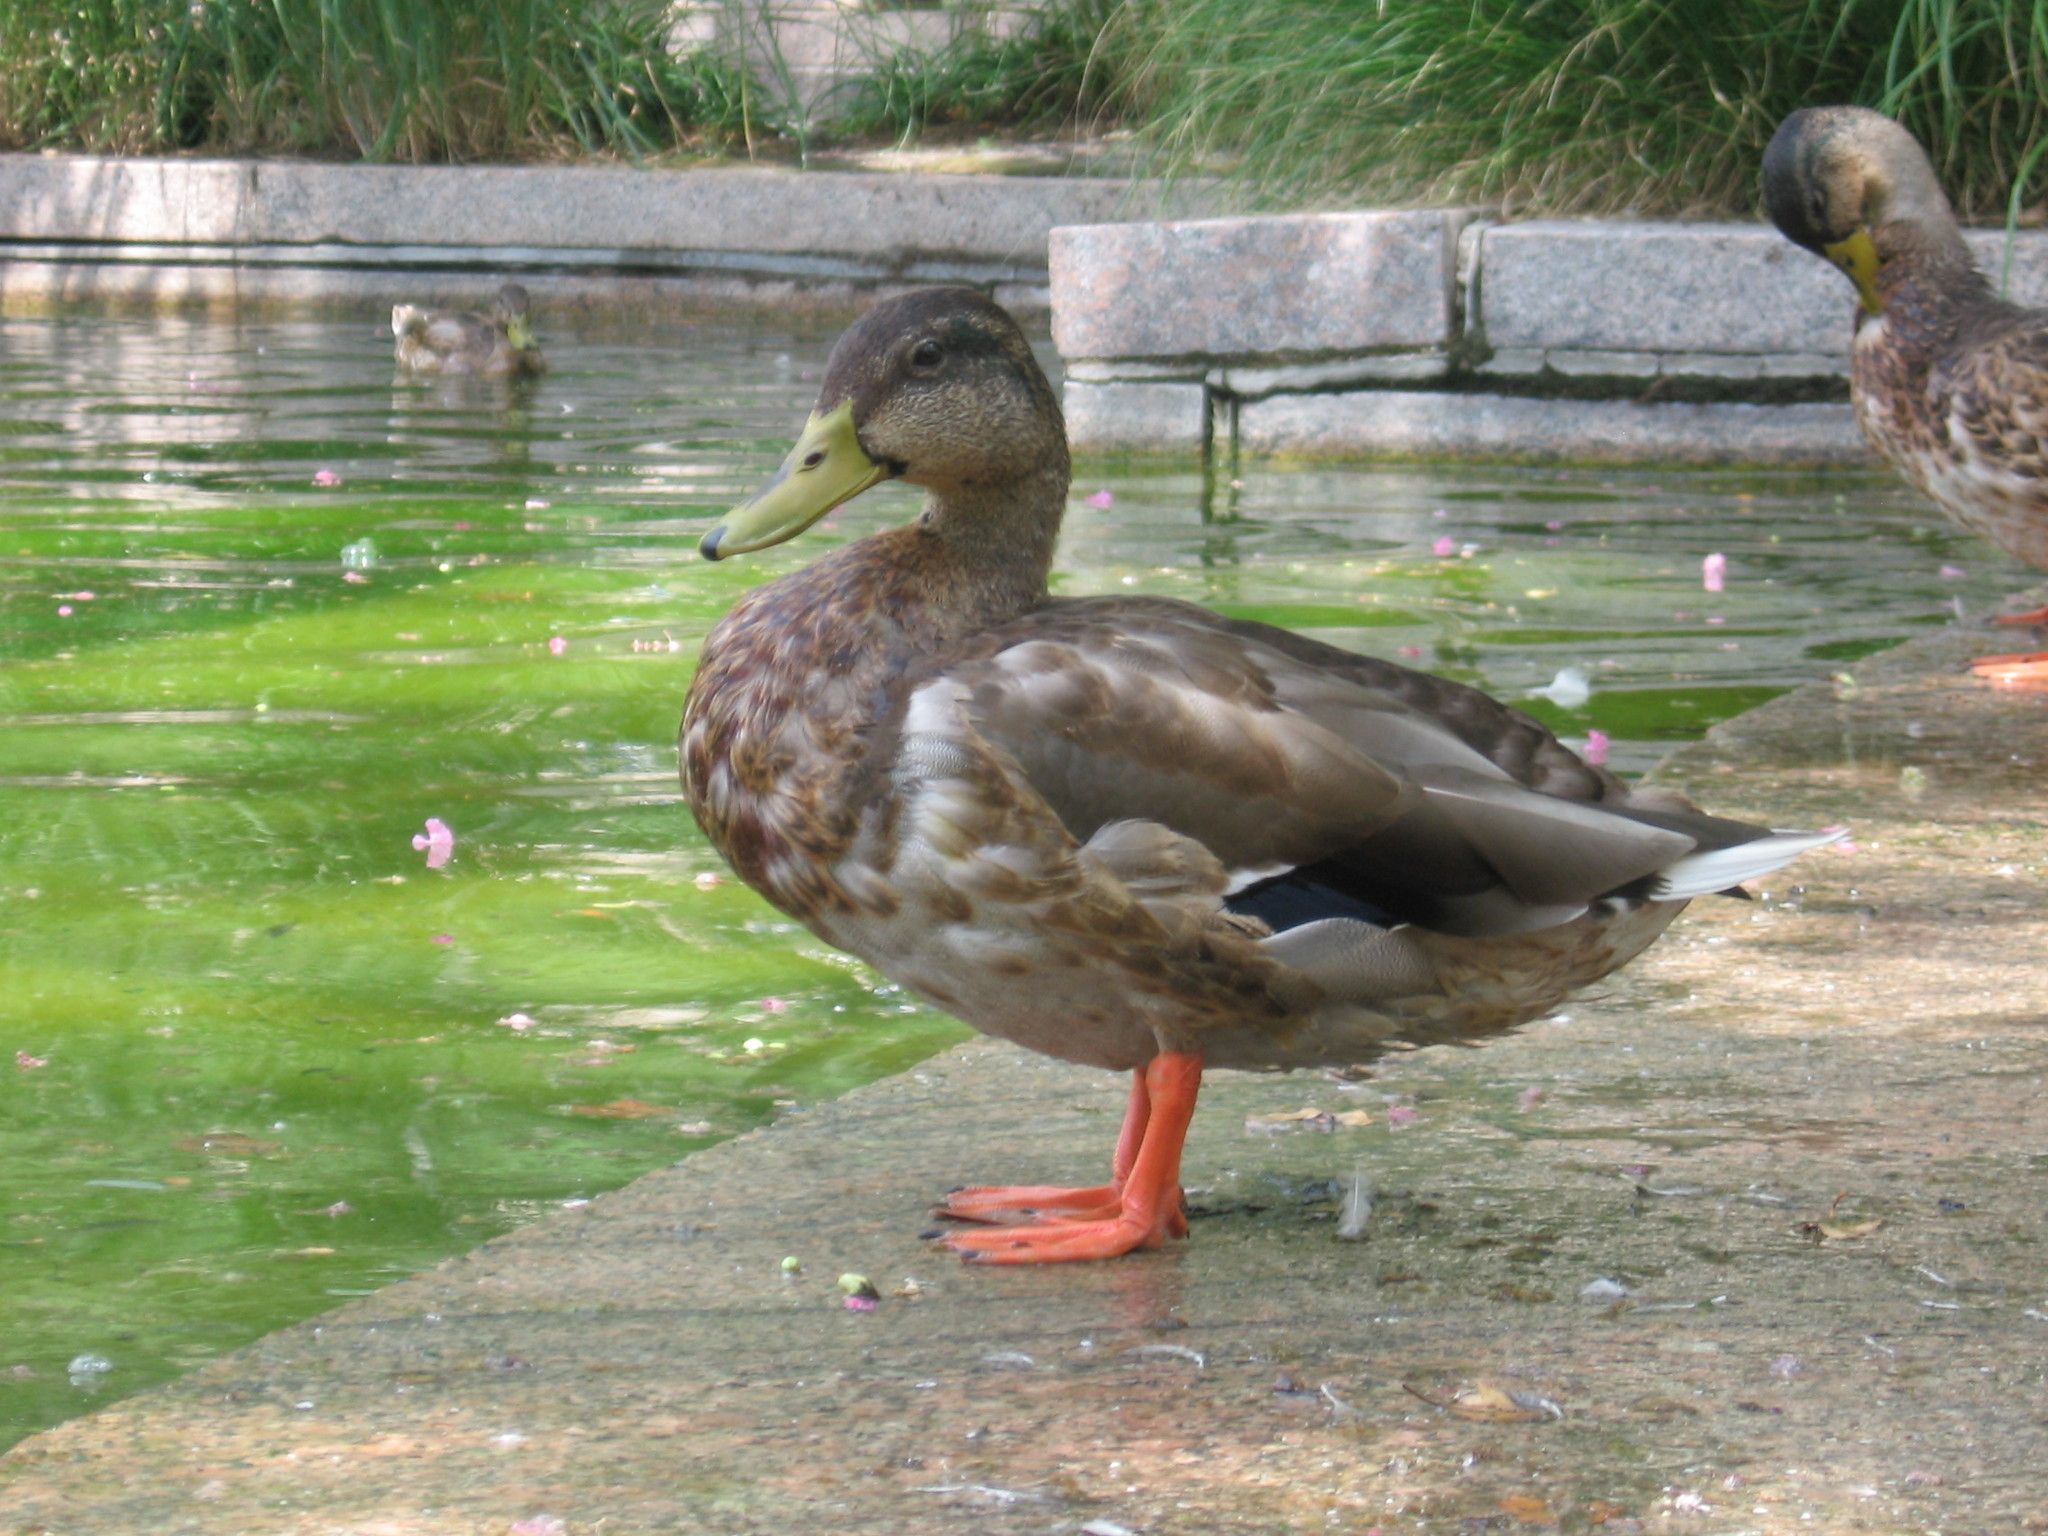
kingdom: Animalia
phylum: Chordata
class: Aves
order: Anseriformes
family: Anatidae
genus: Anas
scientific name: Anas platyrhynchos
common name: Mallard
